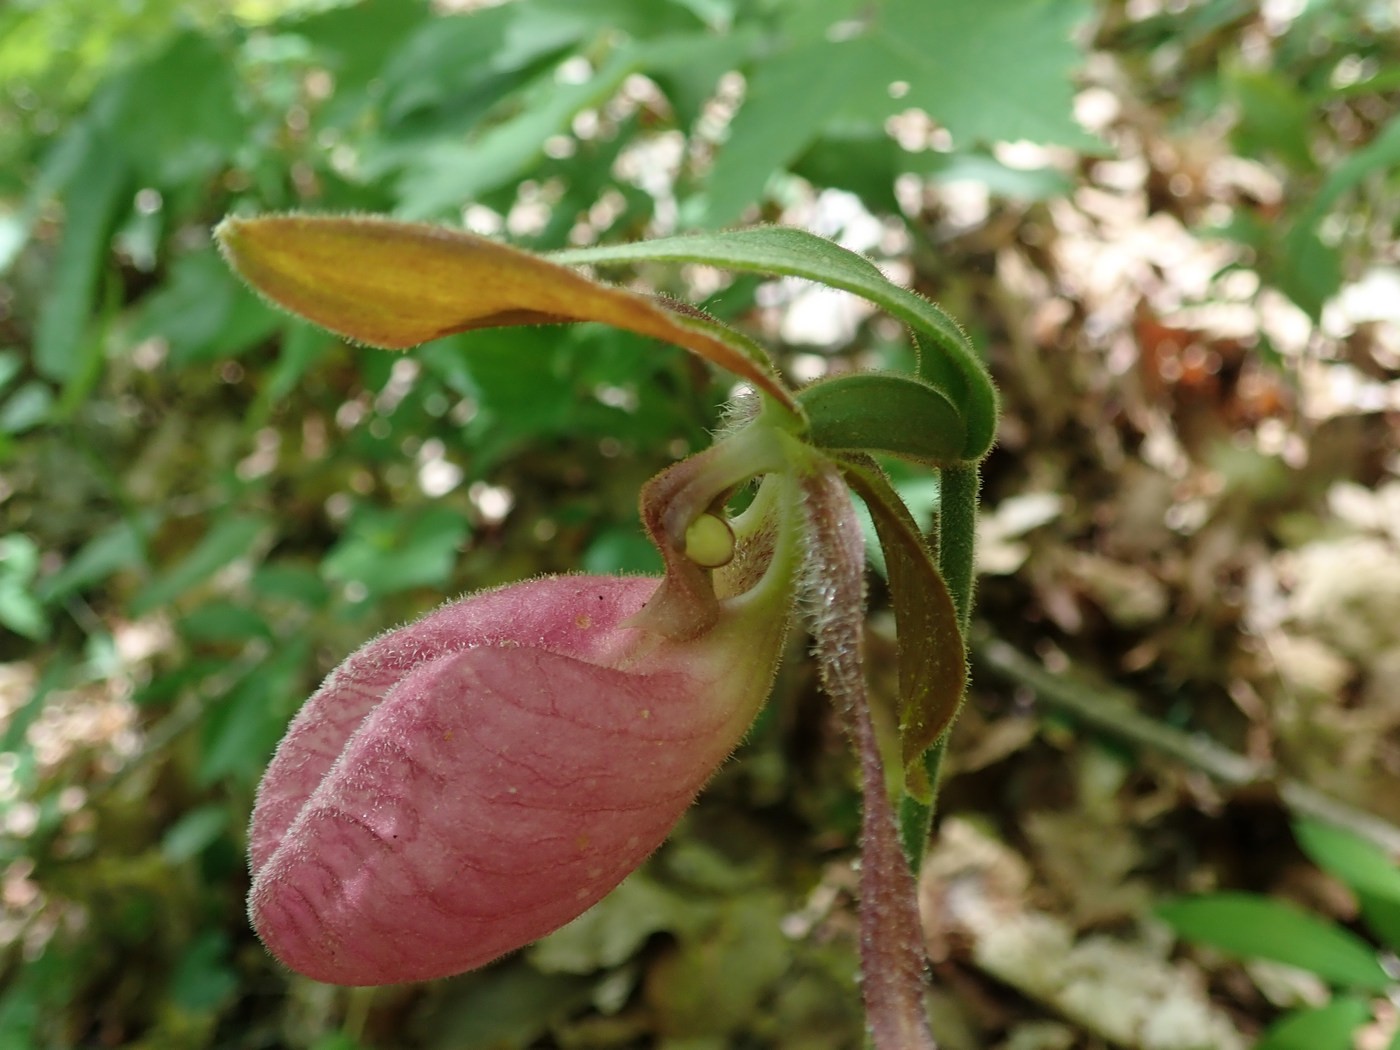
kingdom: Plantae
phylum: Tracheophyta
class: Liliopsida
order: Asparagales
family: Orchidaceae
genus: Cypripedium
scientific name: Cypripedium acaule
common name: Pink lady's-slipper
